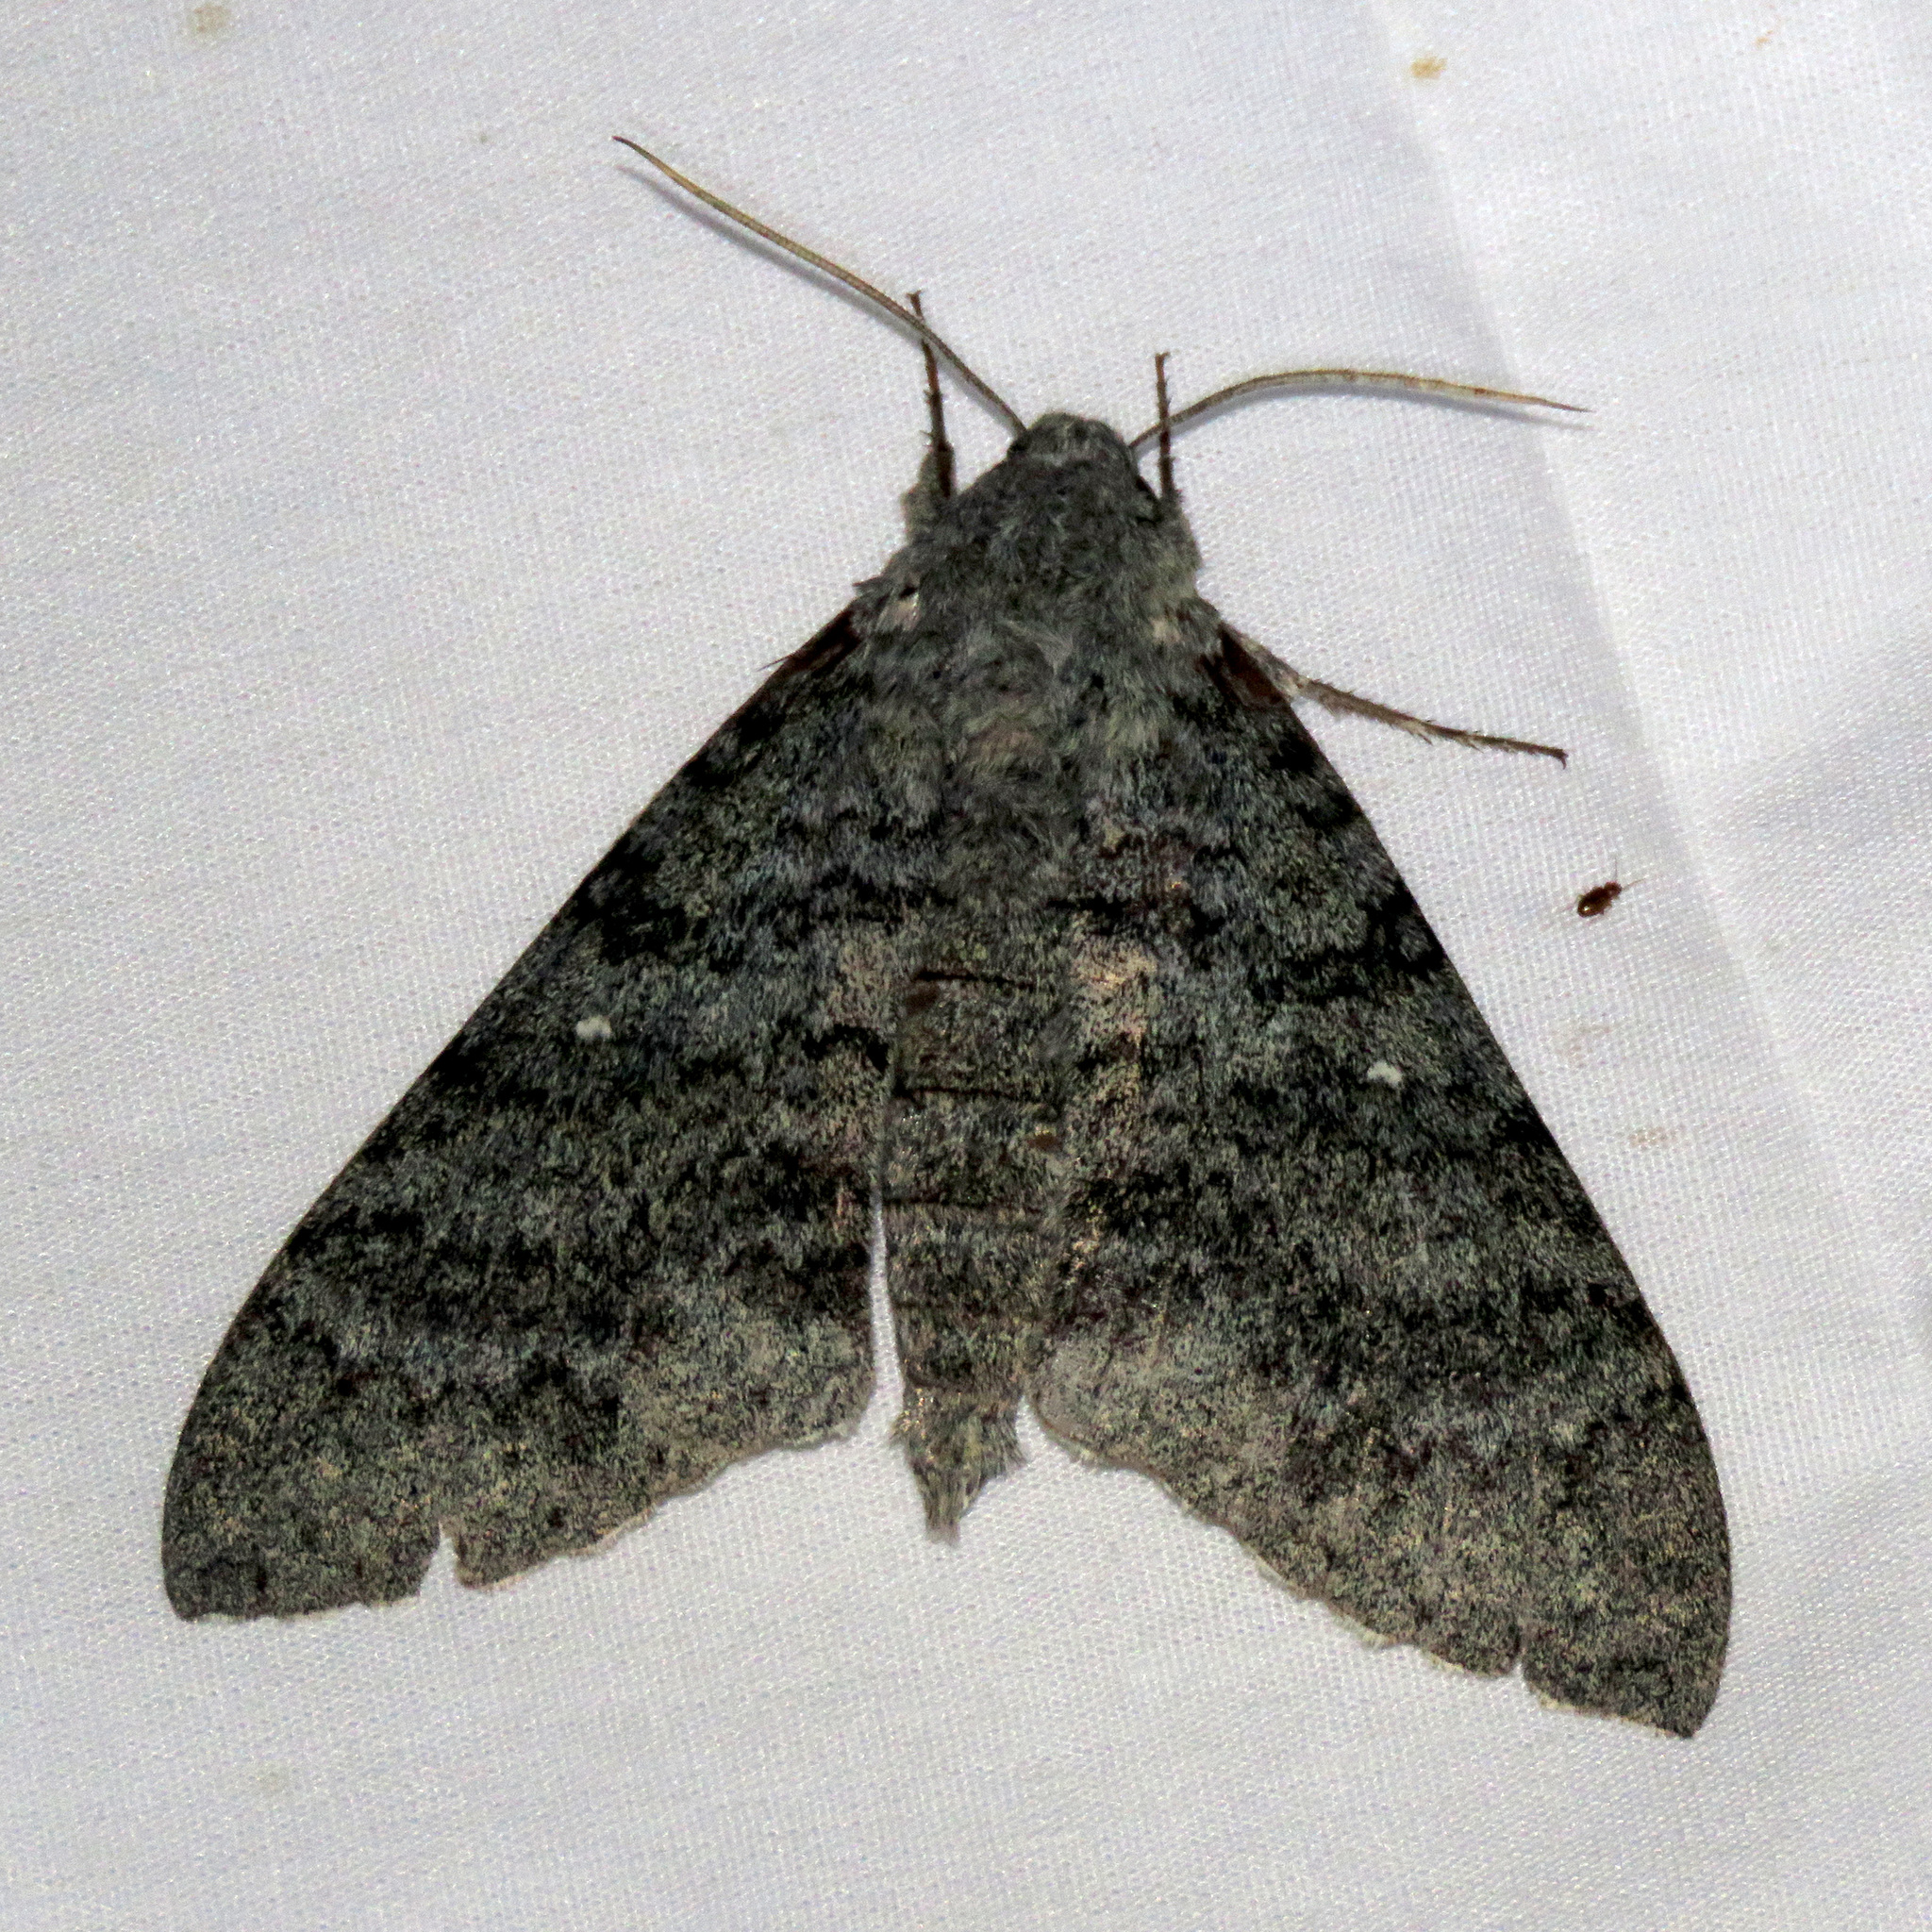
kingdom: Animalia
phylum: Arthropoda
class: Insecta
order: Lepidoptera
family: Sphingidae
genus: Manduca
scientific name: Manduca muscosa
